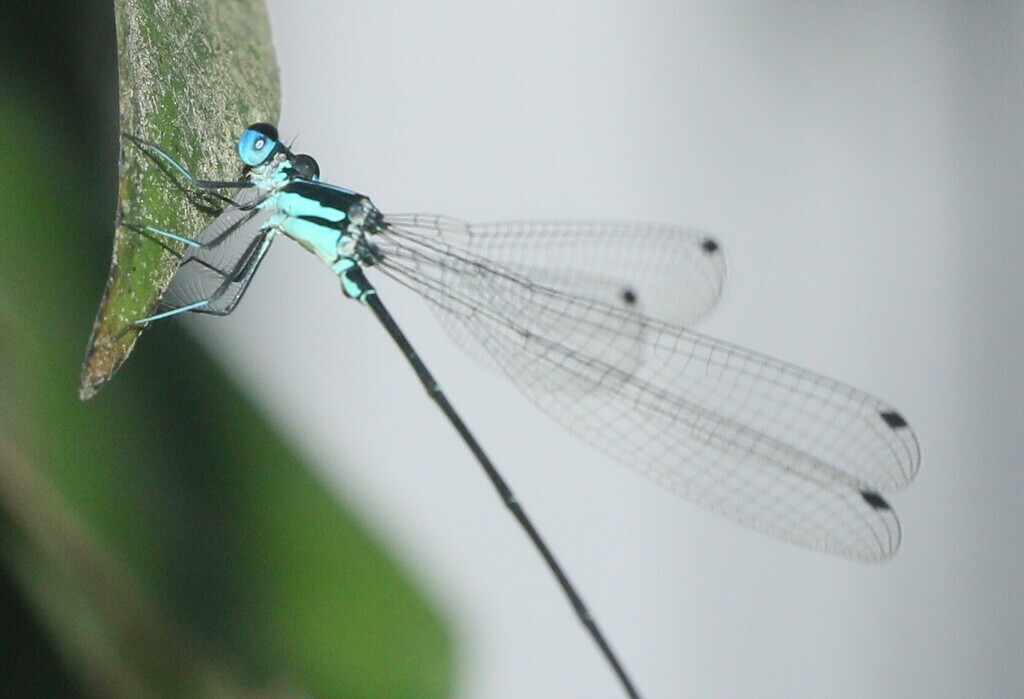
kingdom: Animalia
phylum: Arthropoda
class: Insecta
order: Odonata
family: Platycnemididae
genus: Esme
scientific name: Esme longistyla
